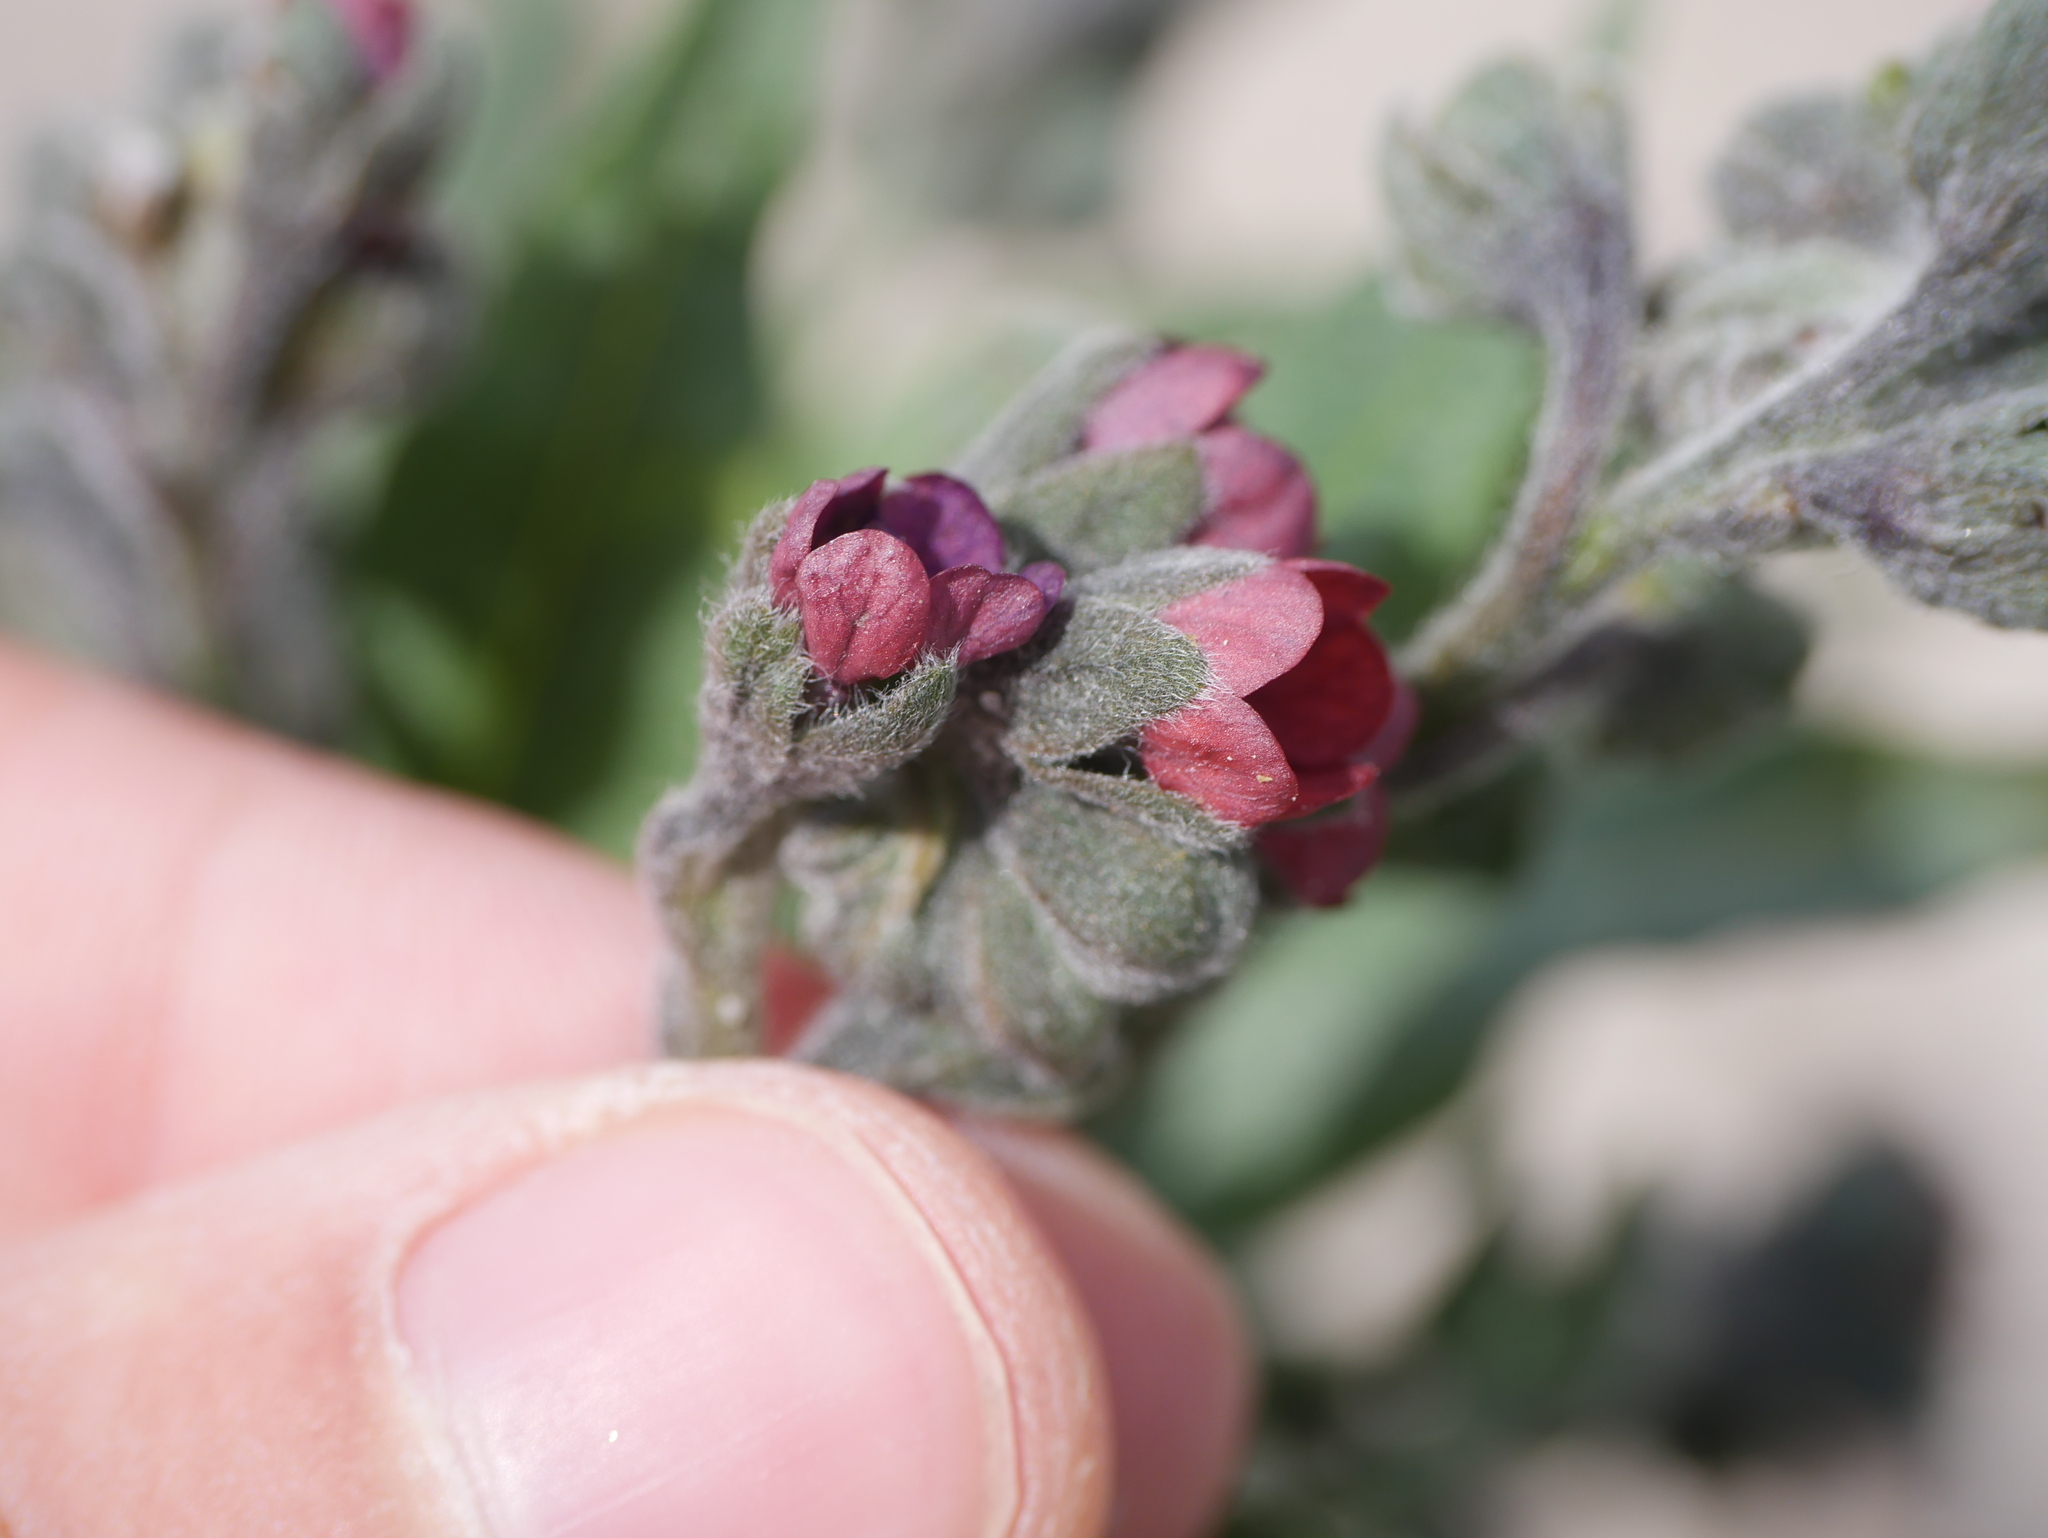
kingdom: Plantae
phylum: Tracheophyta
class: Magnoliopsida
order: Boraginales
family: Boraginaceae
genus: Cynoglossum
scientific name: Cynoglossum officinale
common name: Hound's-tongue
